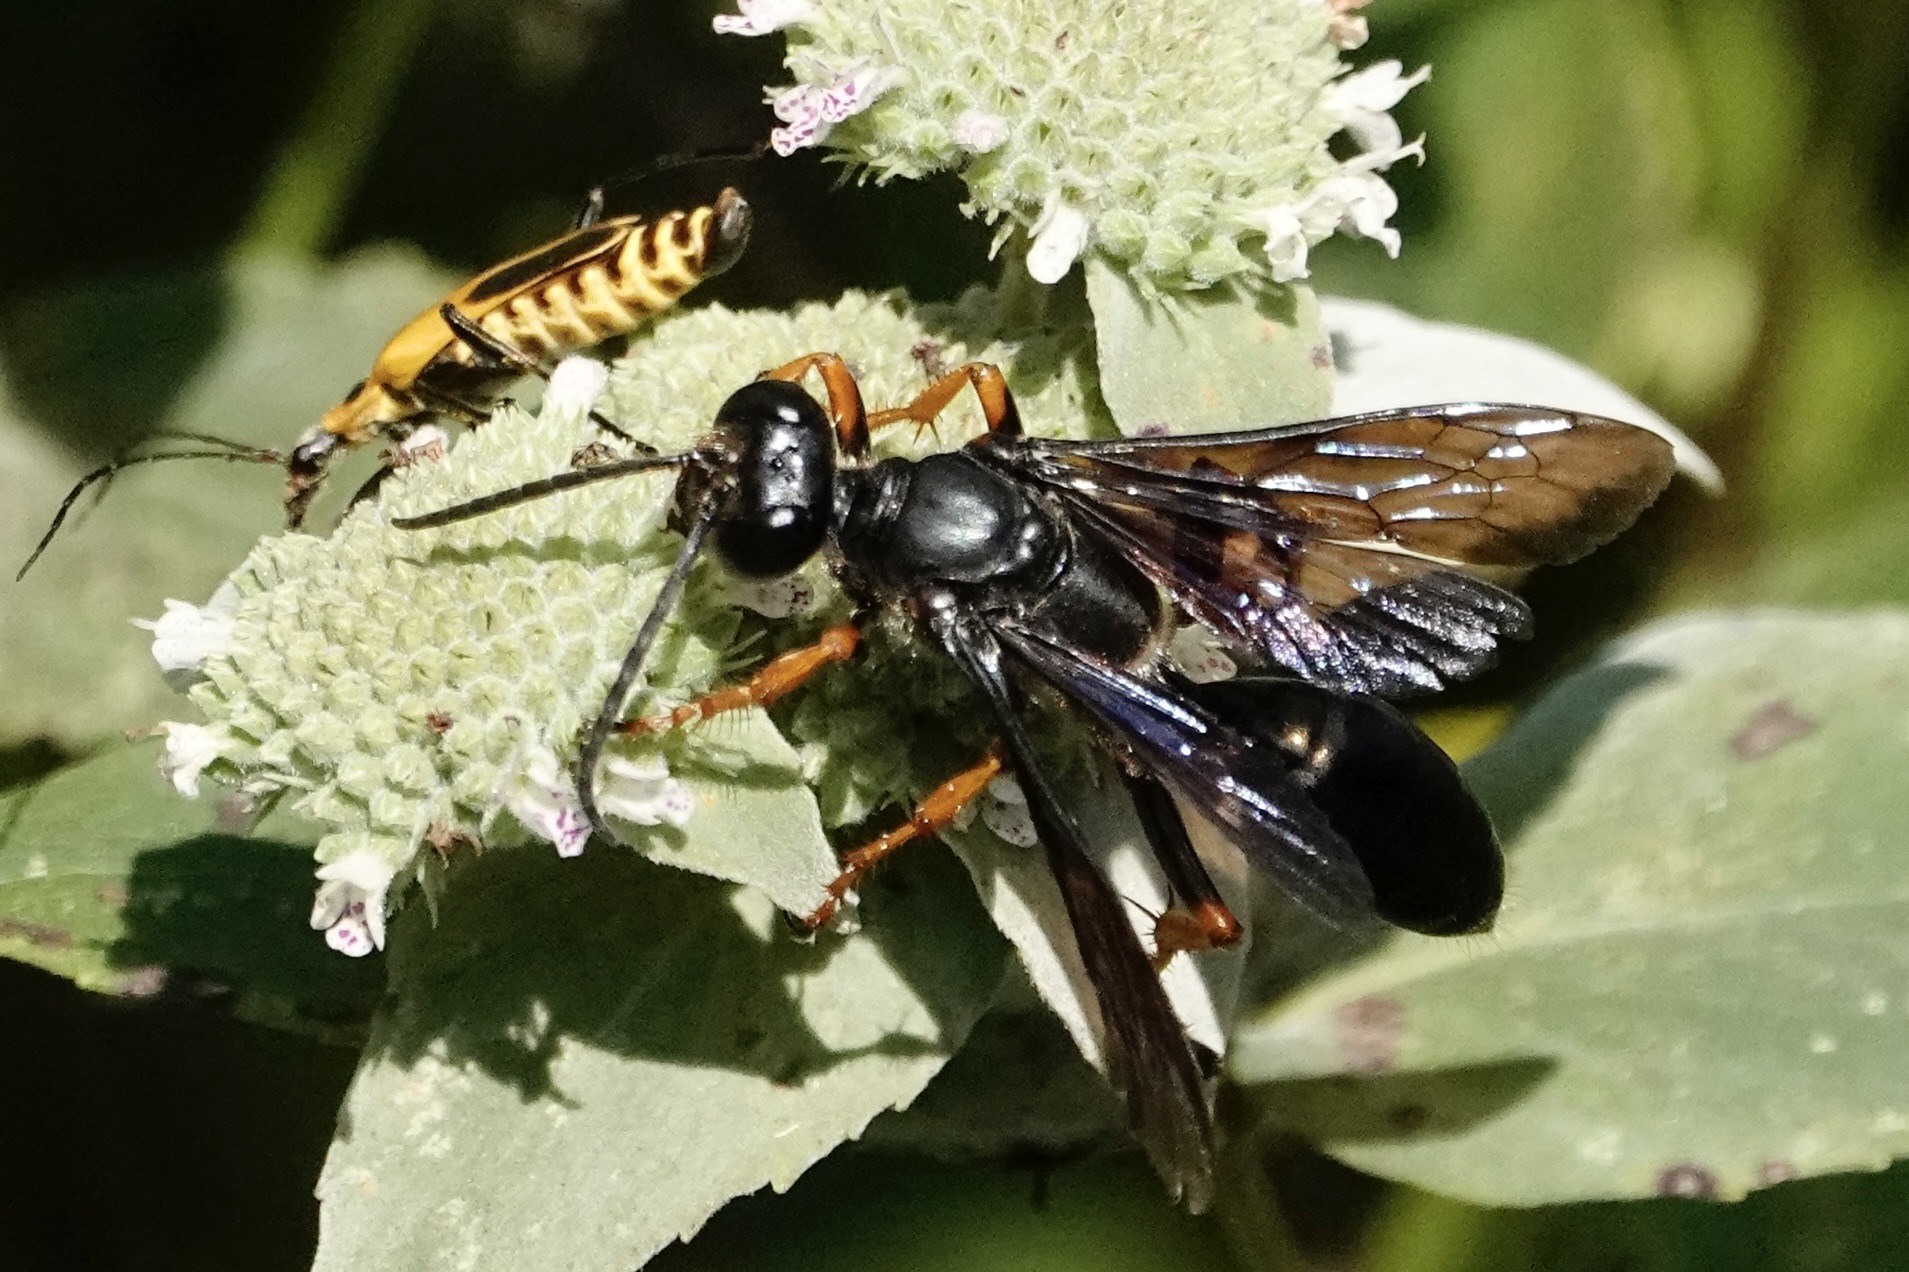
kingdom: Animalia
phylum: Arthropoda
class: Insecta
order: Hymenoptera
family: Sphecidae
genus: Sphex
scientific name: Sphex nudus
